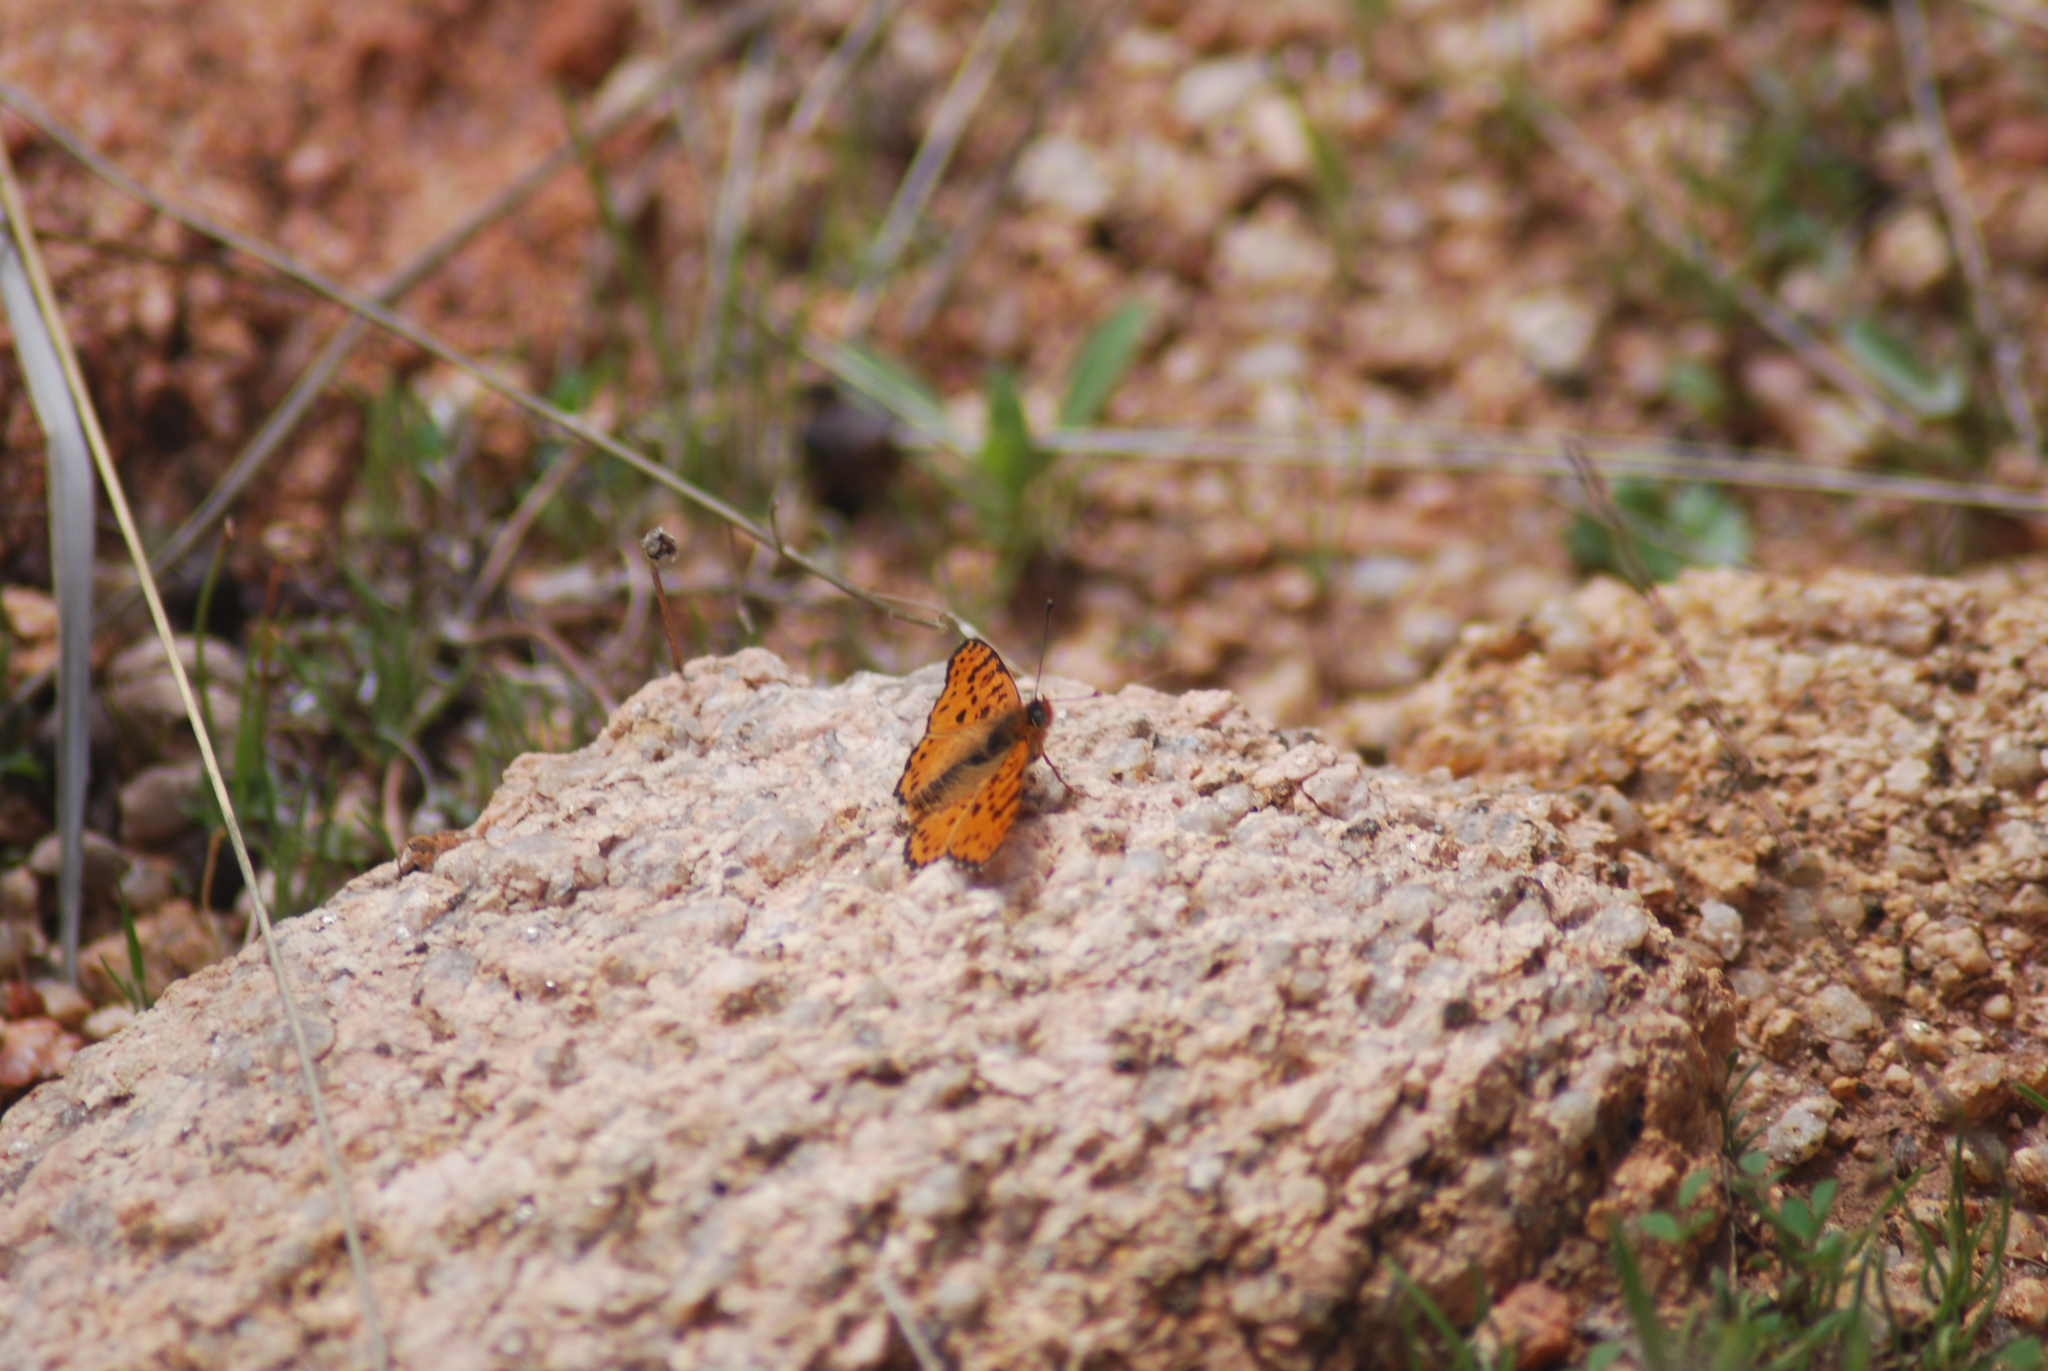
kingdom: Animalia
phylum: Arthropoda
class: Insecta
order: Lepidoptera
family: Nymphalidae
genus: Melitaea
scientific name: Melitaea didyma
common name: Spotted fritillary
